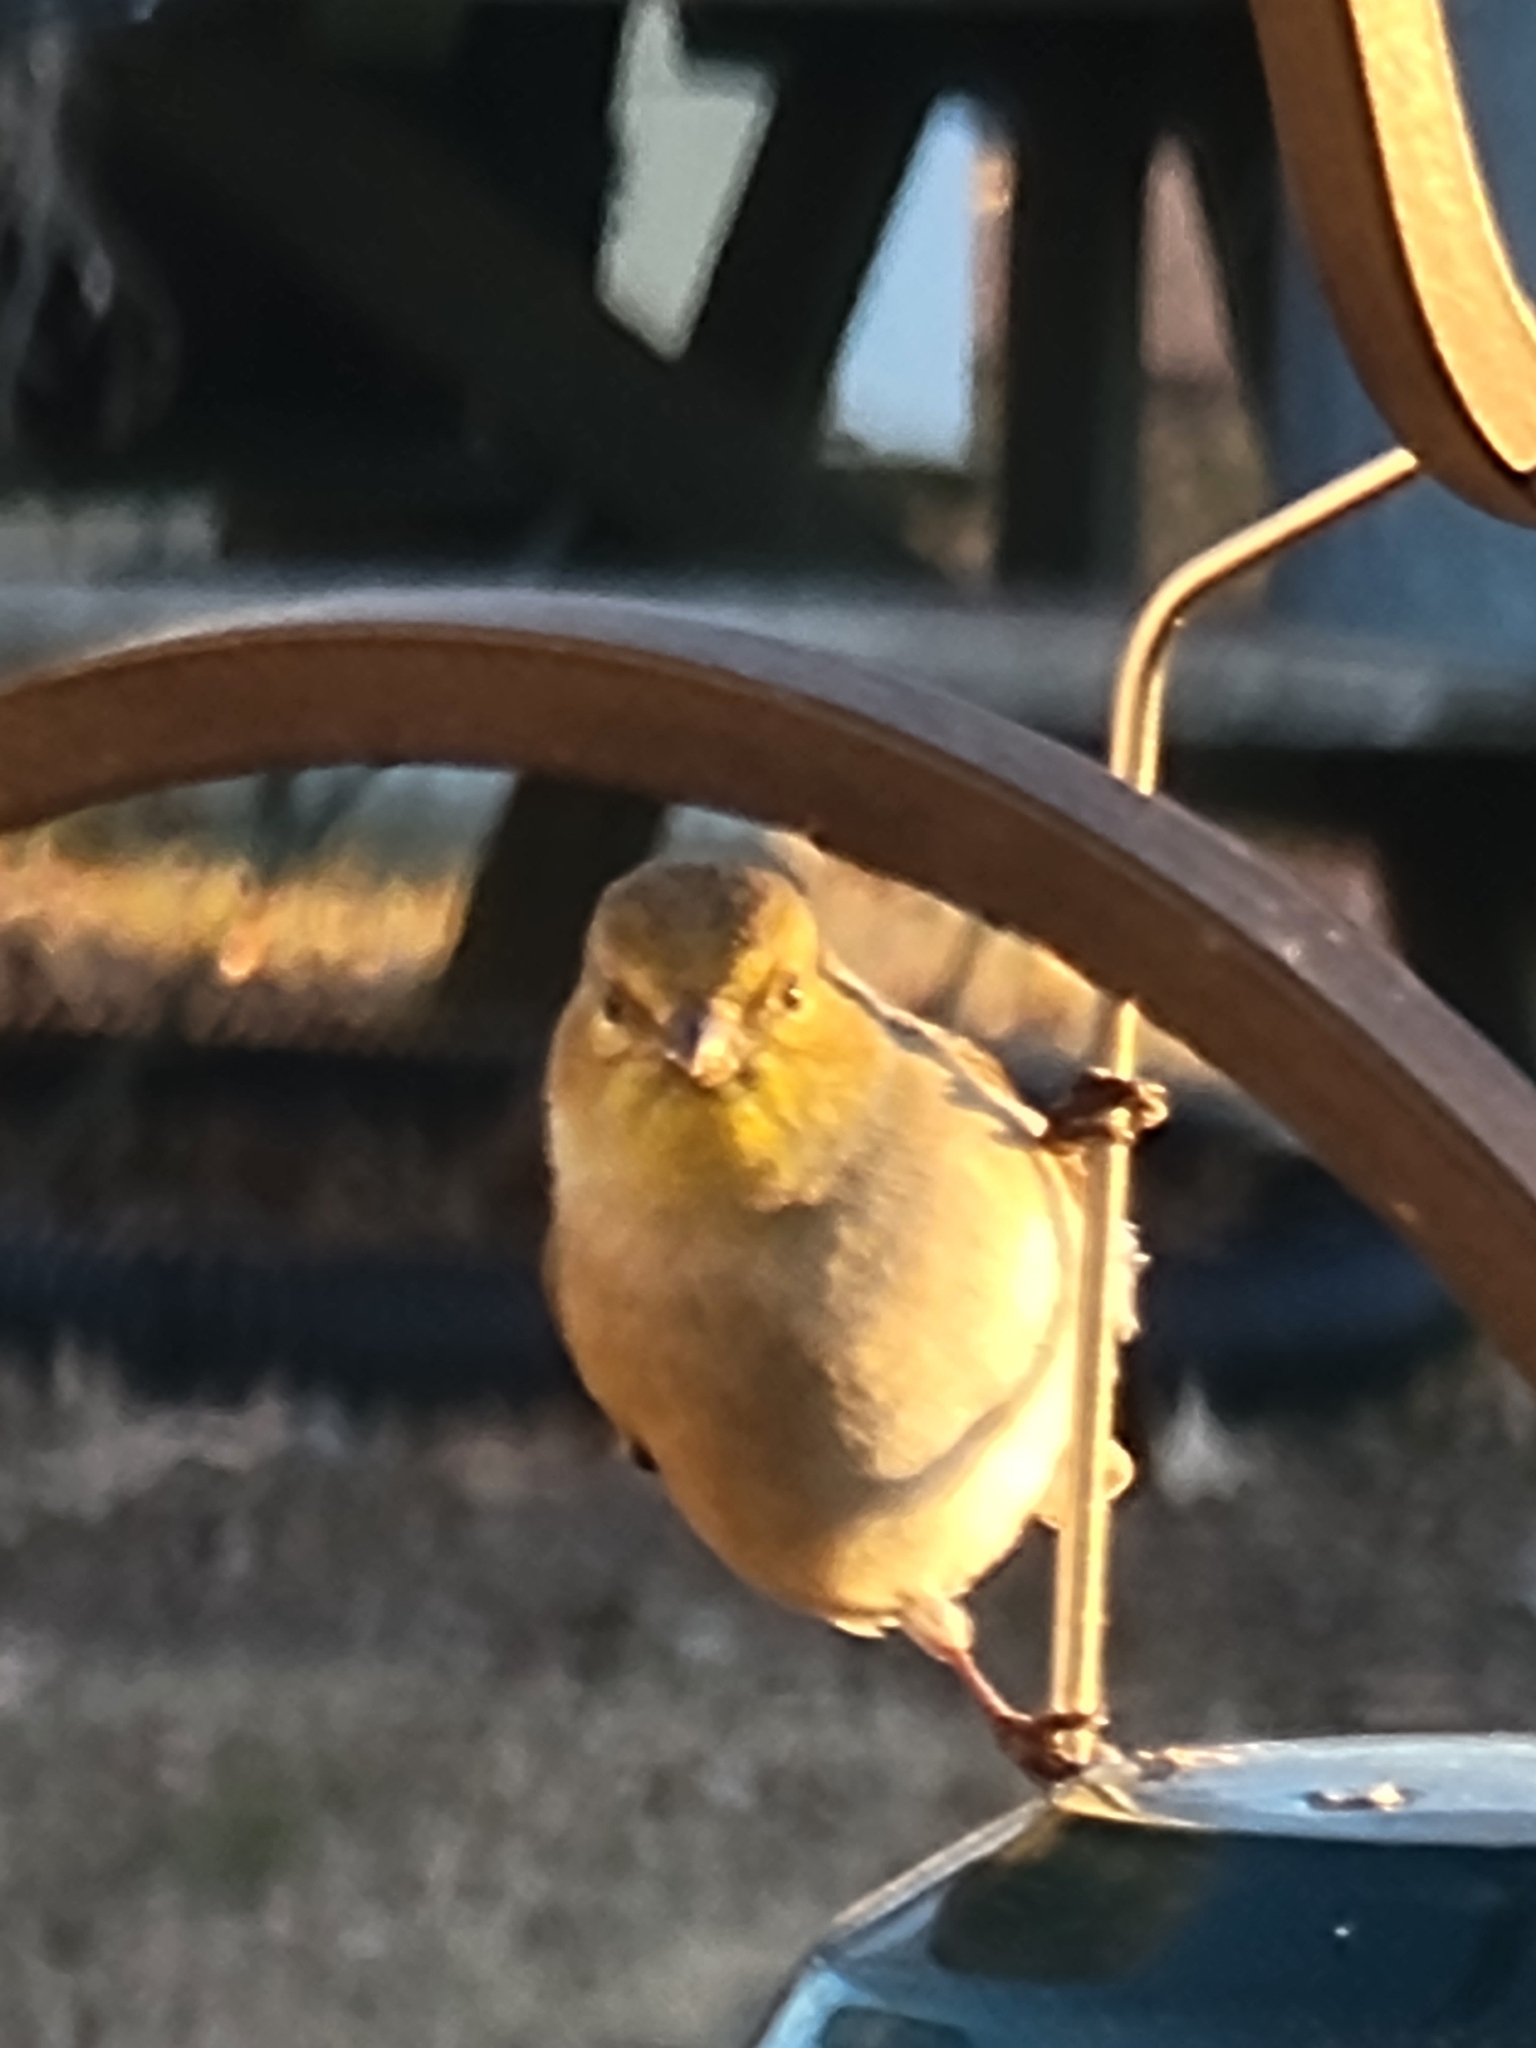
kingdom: Animalia
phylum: Chordata
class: Aves
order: Passeriformes
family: Fringillidae
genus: Spinus
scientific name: Spinus tristis
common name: American goldfinch
